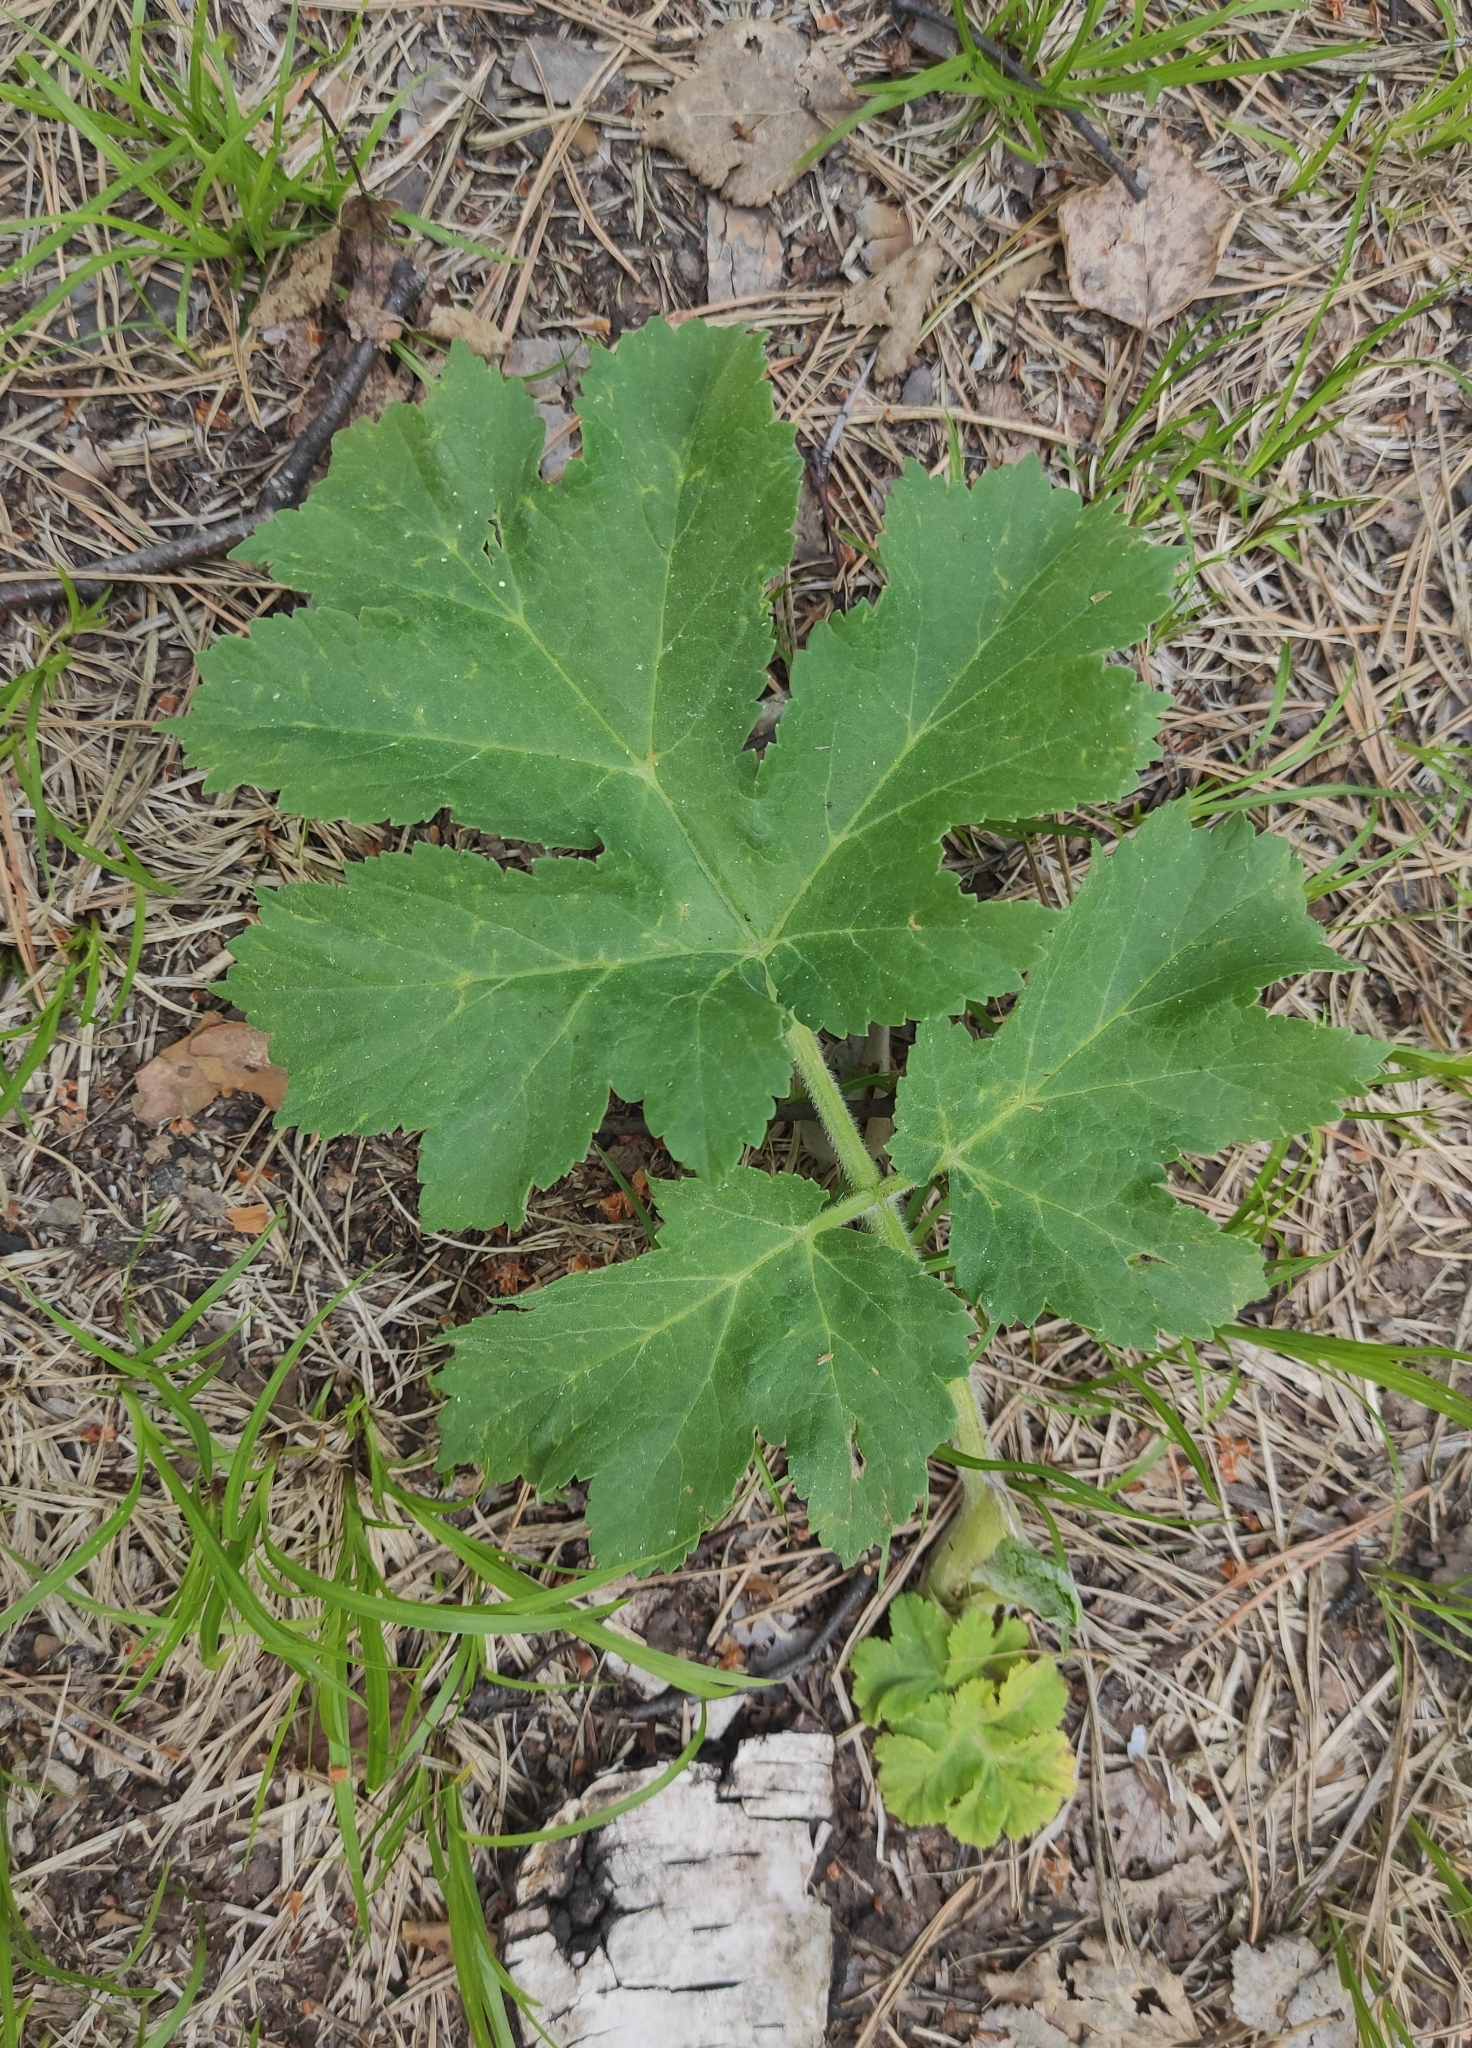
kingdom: Plantae
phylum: Tracheophyta
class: Magnoliopsida
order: Apiales
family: Apiaceae
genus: Heracleum
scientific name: Heracleum dissectum
